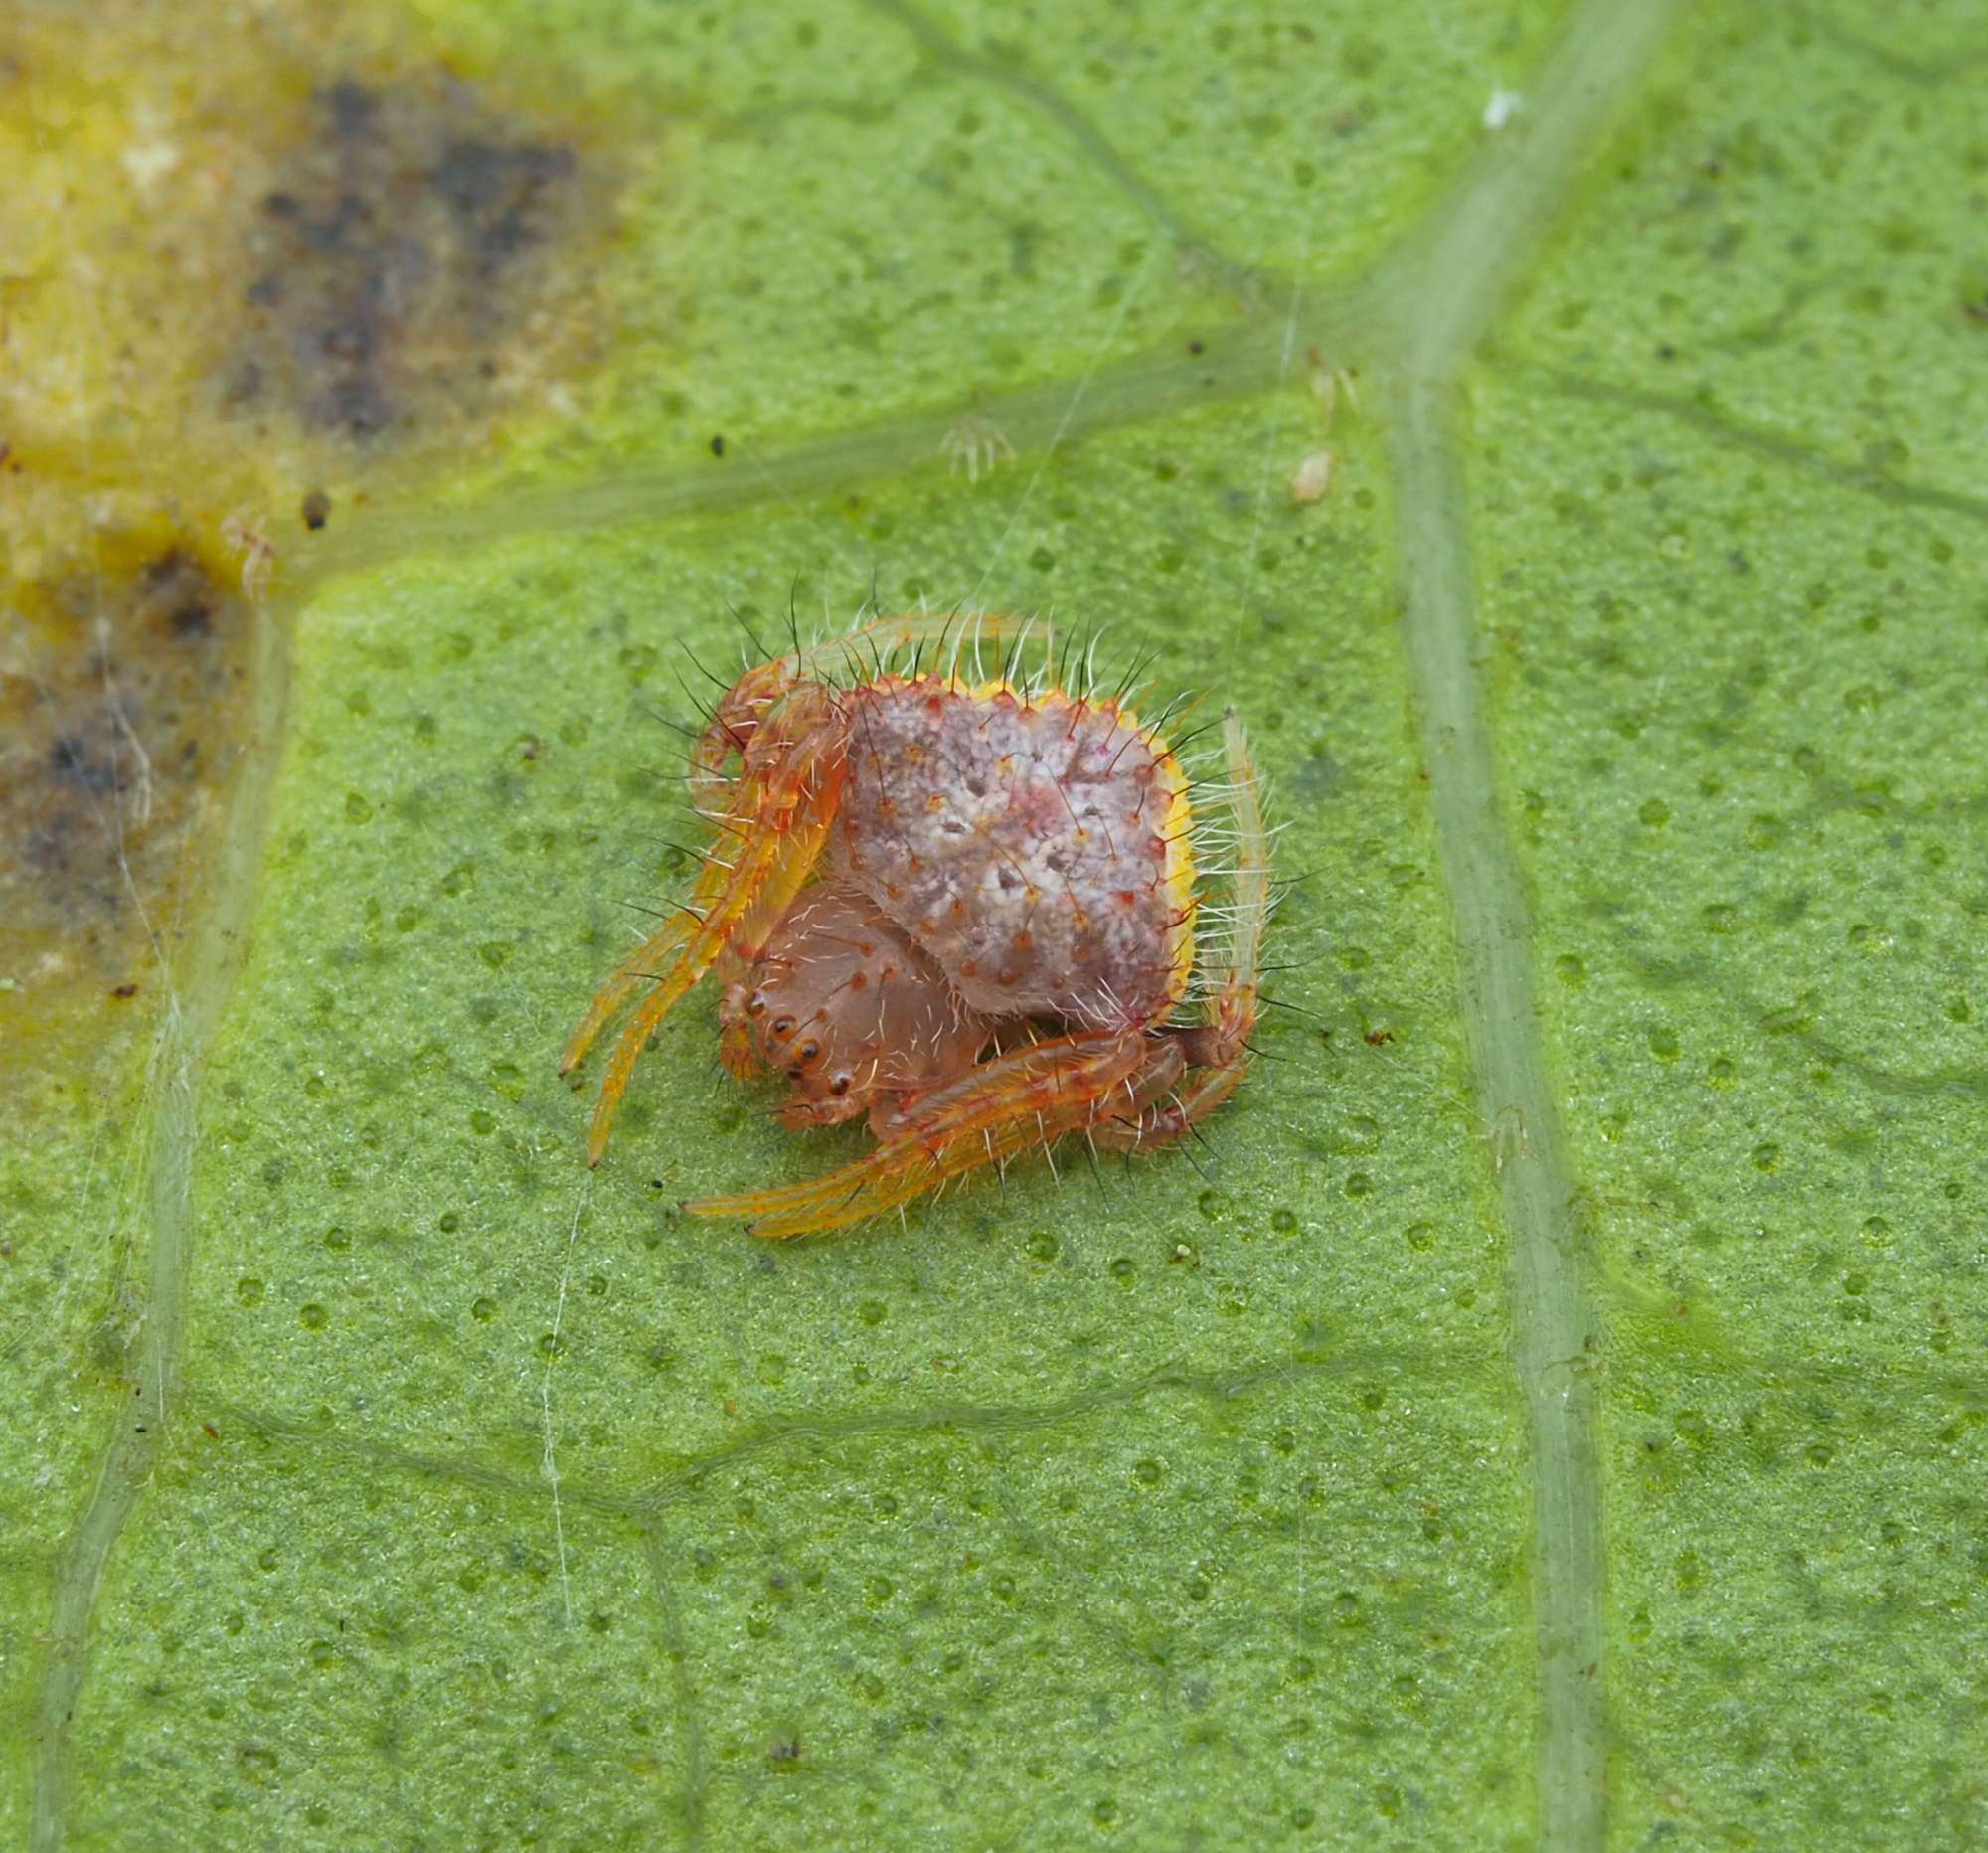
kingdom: Animalia
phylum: Arthropoda
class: Arachnida
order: Araneae
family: Araneidae
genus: Poecilopachys
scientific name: Poecilopachys australasia
